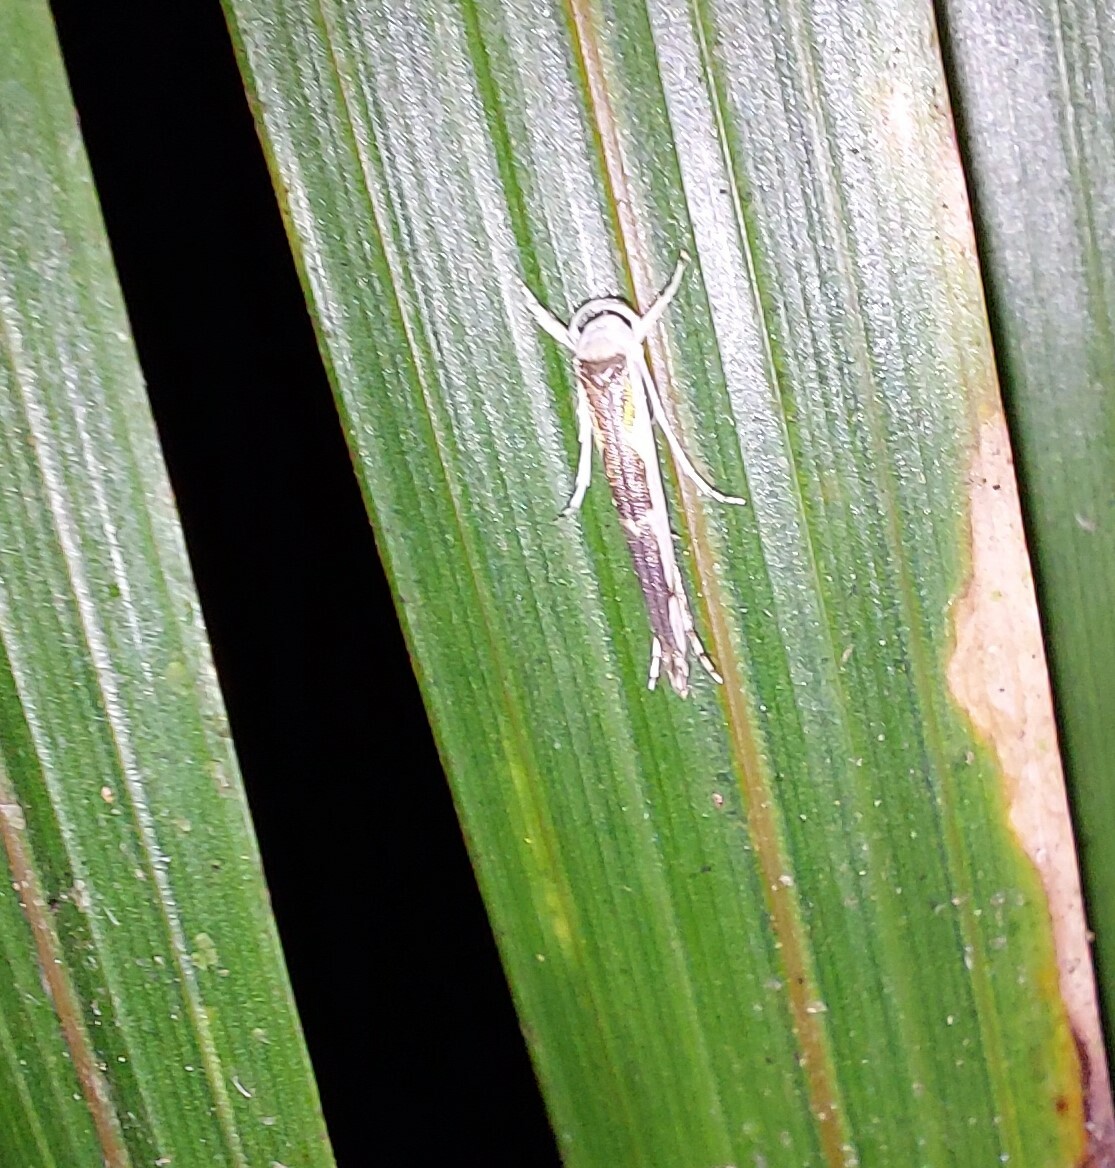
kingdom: Animalia
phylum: Arthropoda
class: Insecta
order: Lepidoptera
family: Roeslerstammiidae
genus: Vanicela
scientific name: Vanicela disjunctella
